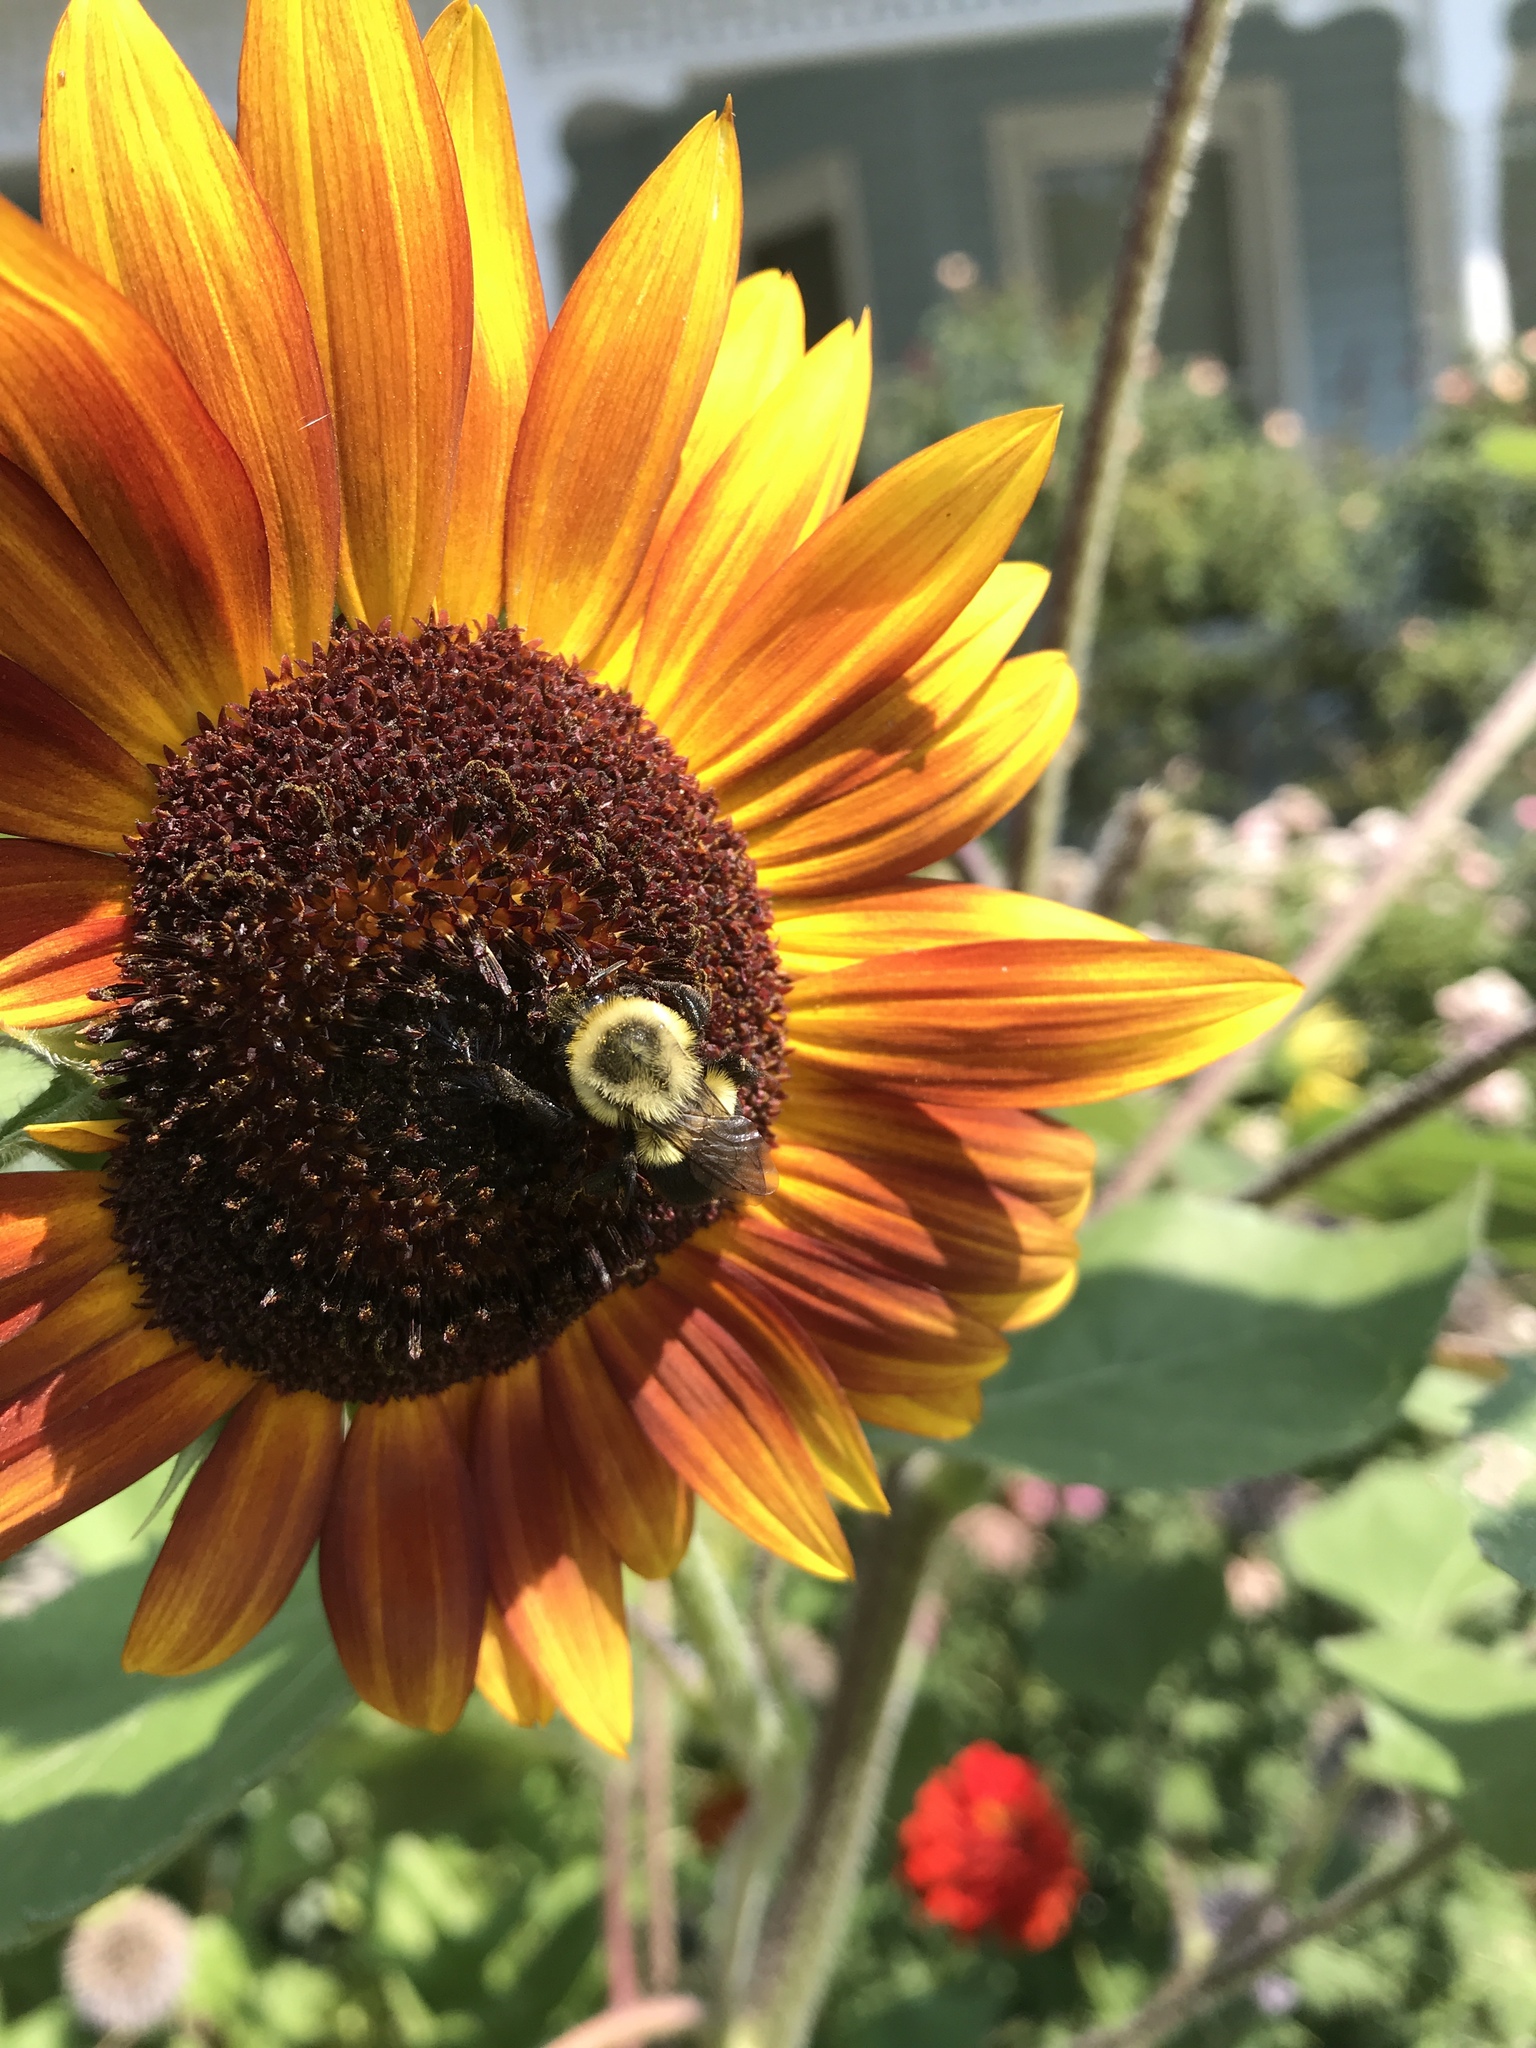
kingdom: Animalia
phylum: Arthropoda
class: Insecta
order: Hymenoptera
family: Apidae
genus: Bombus
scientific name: Bombus impatiens
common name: Common eastern bumble bee
